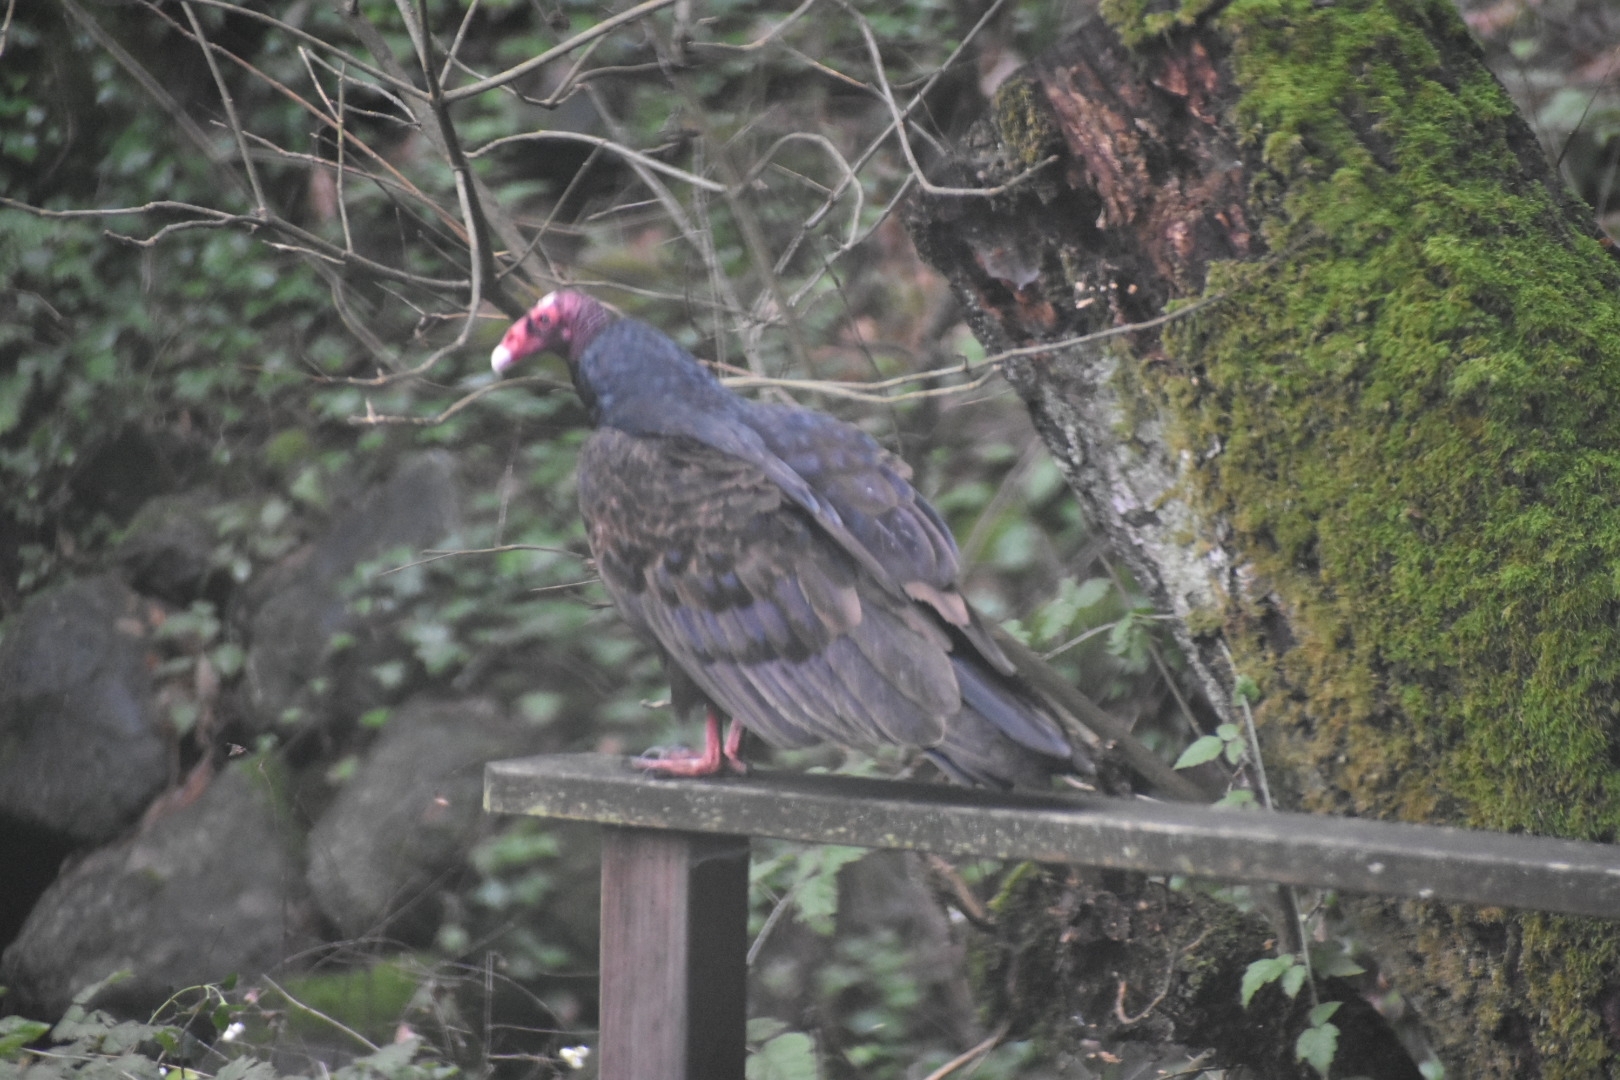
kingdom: Animalia
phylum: Chordata
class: Aves
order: Accipitriformes
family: Cathartidae
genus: Cathartes
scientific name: Cathartes aura
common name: Turkey vulture
